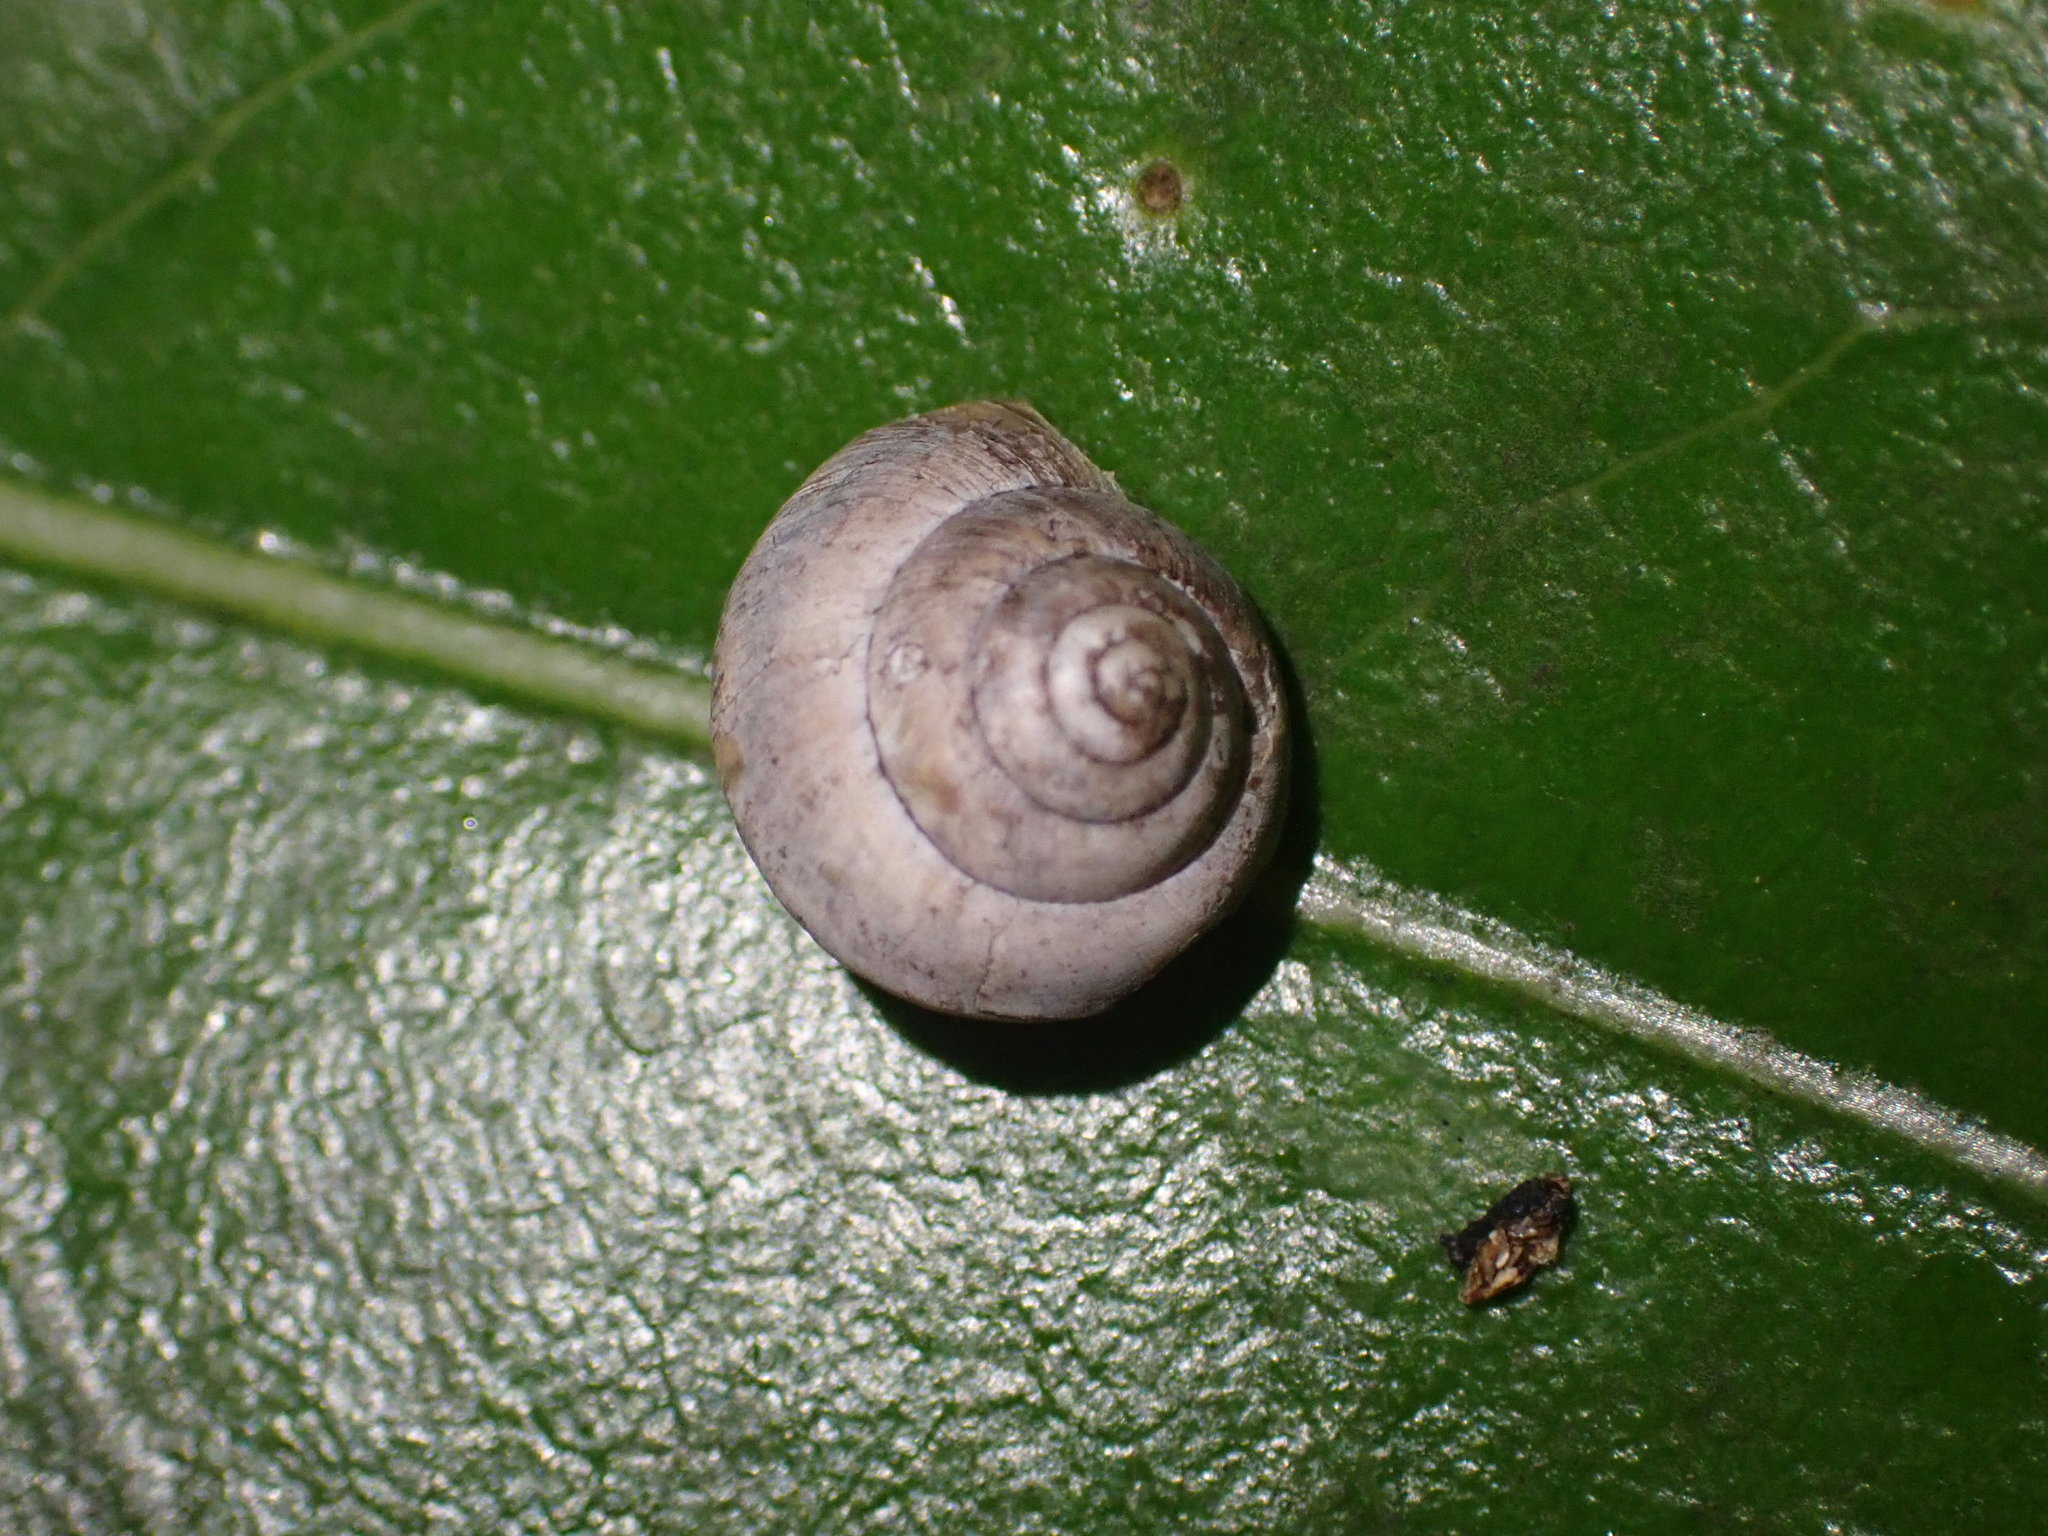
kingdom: Animalia
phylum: Mollusca
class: Gastropoda
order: Stylommatophora
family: Charopidae
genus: Serpho
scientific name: Serpho
